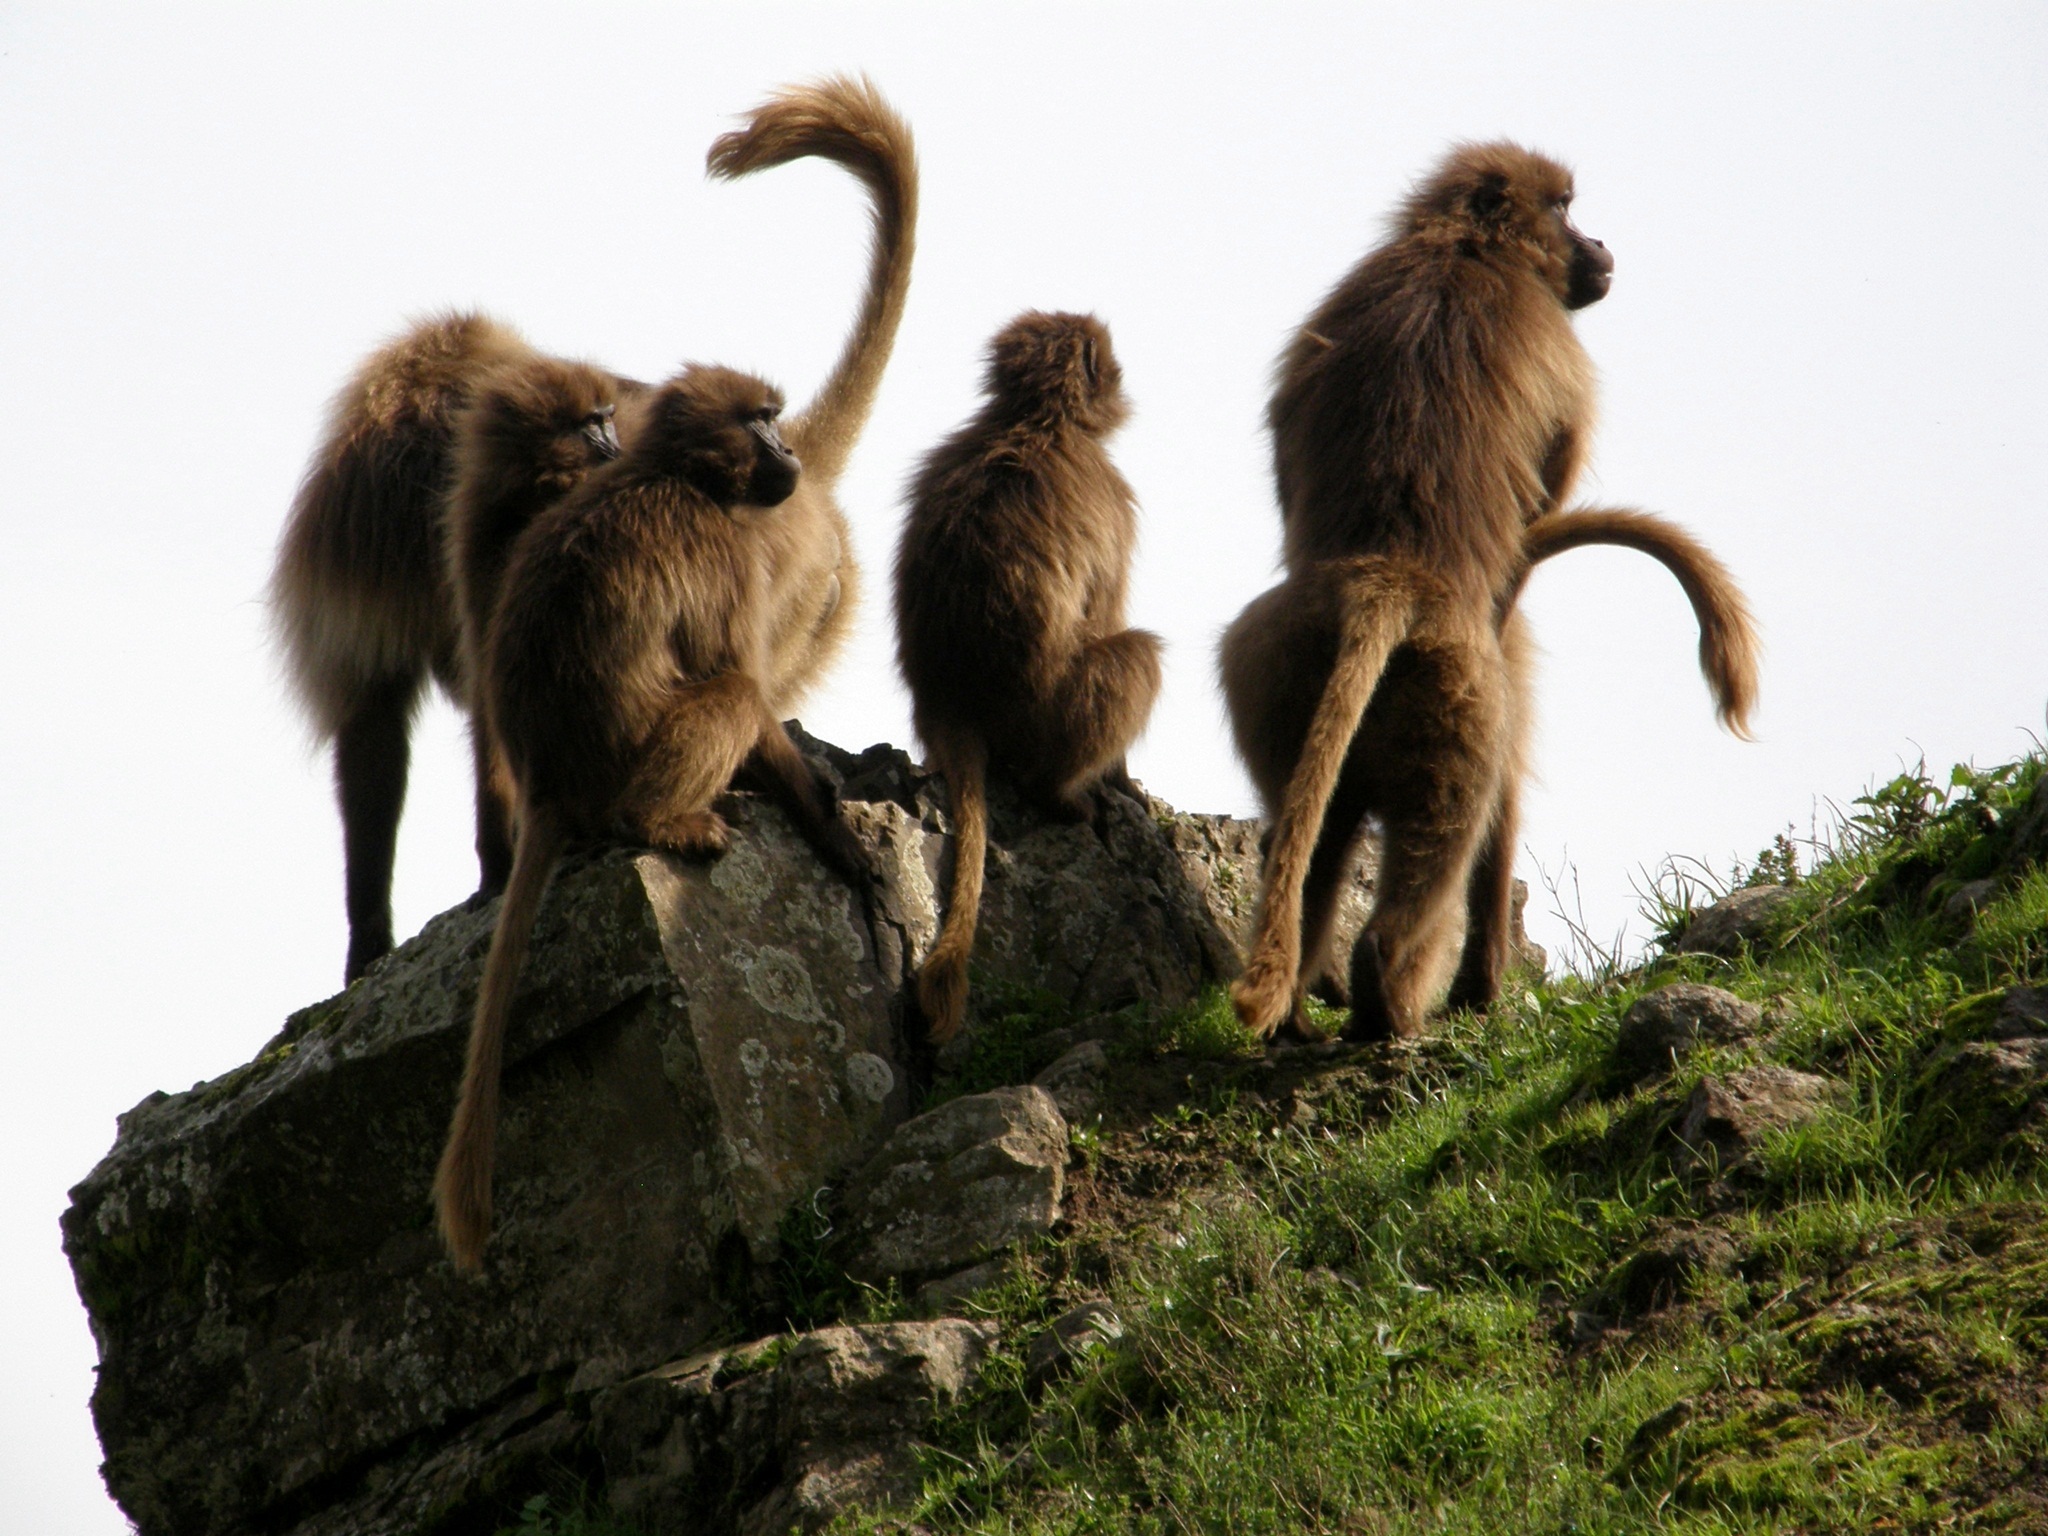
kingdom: Animalia
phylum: Chordata
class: Mammalia
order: Primates
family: Cercopithecidae
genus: Theropithecus
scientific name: Theropithecus gelada
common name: Gelada
